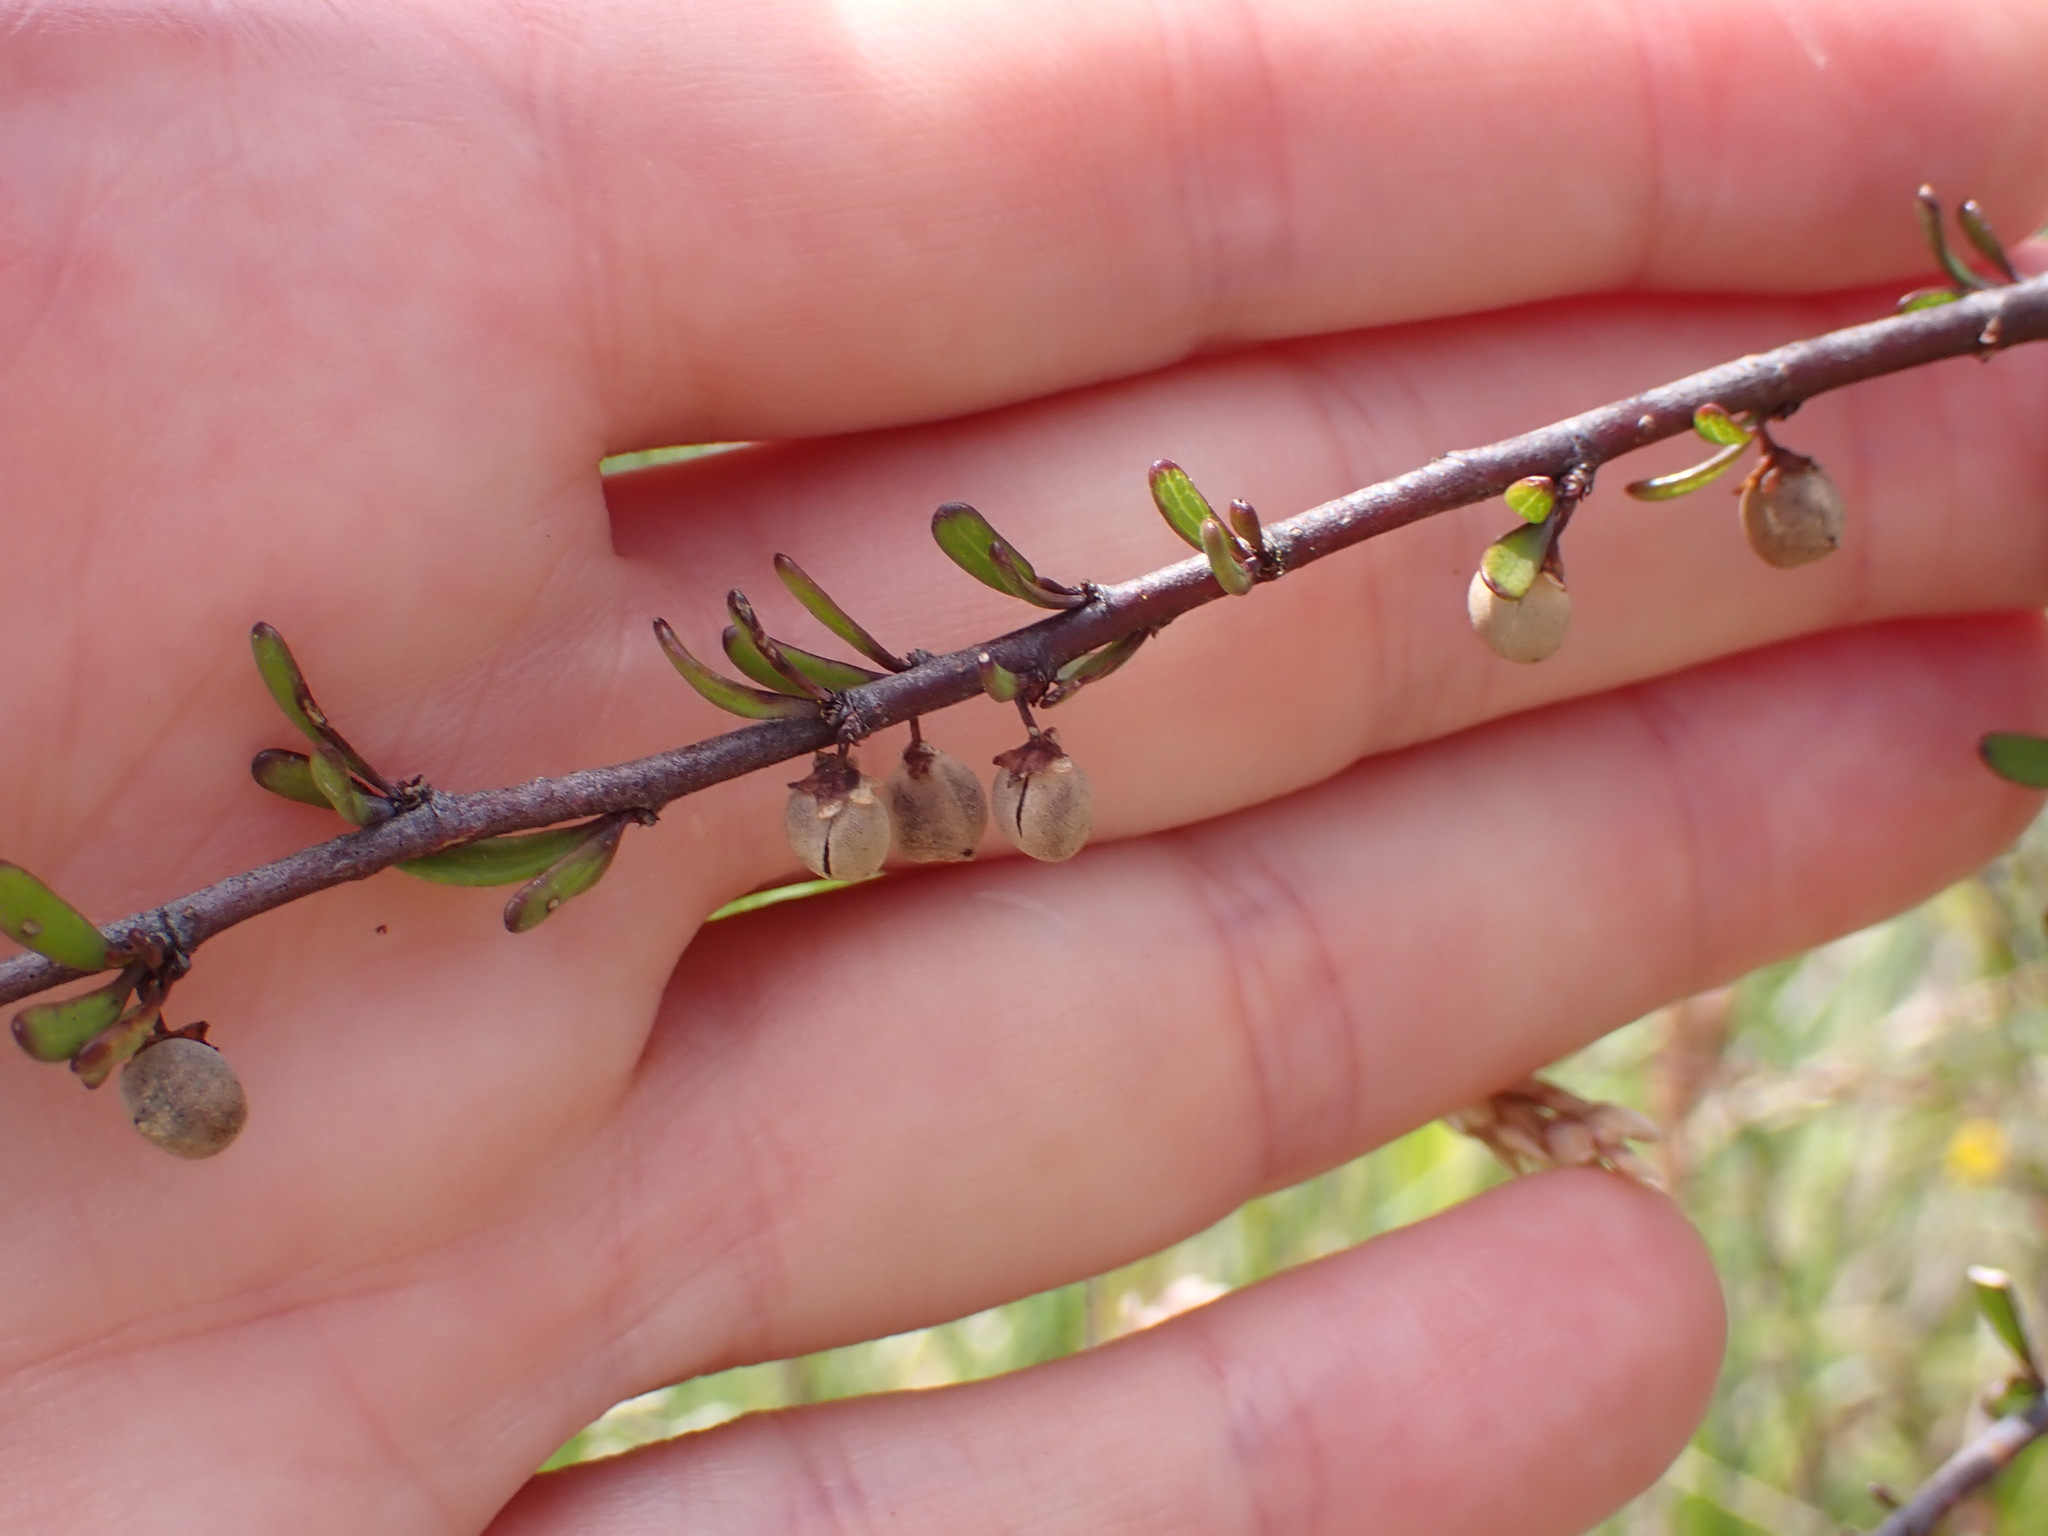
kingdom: Plantae
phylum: Tracheophyta
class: Magnoliopsida
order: Malvales
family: Malvaceae
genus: Plagianthus
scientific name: Plagianthus divaricatus
